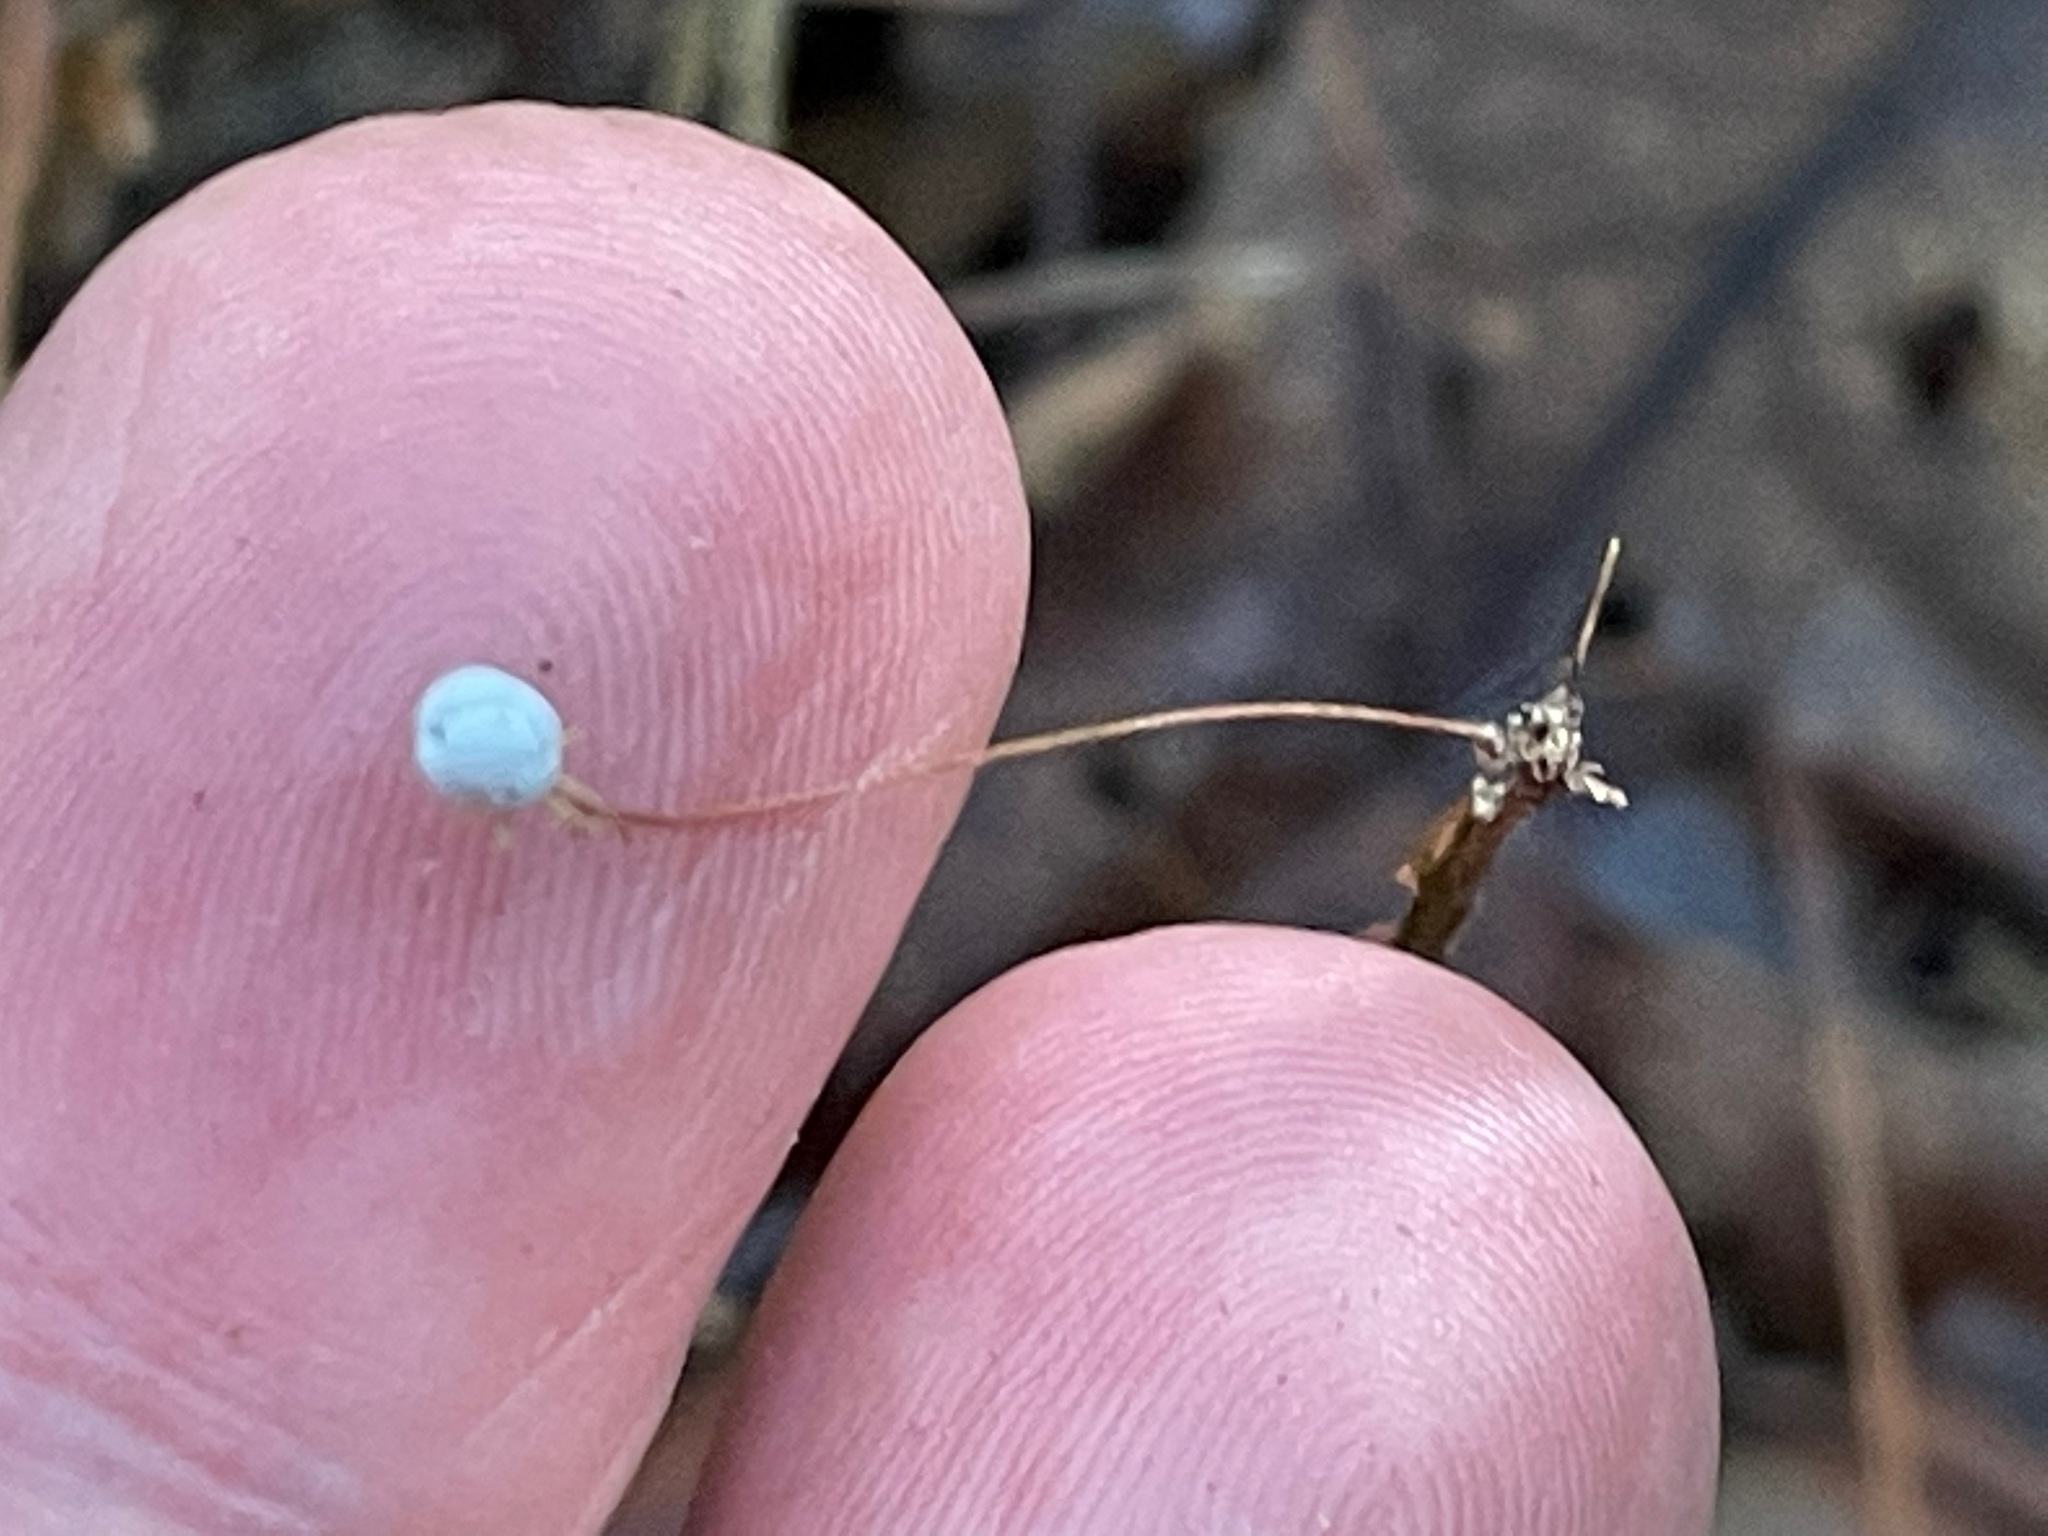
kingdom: Plantae
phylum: Tracheophyta
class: Magnoliopsida
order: Ericales
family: Primulaceae
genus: Lysimachia
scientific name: Lysimachia borealis
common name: American starflower
